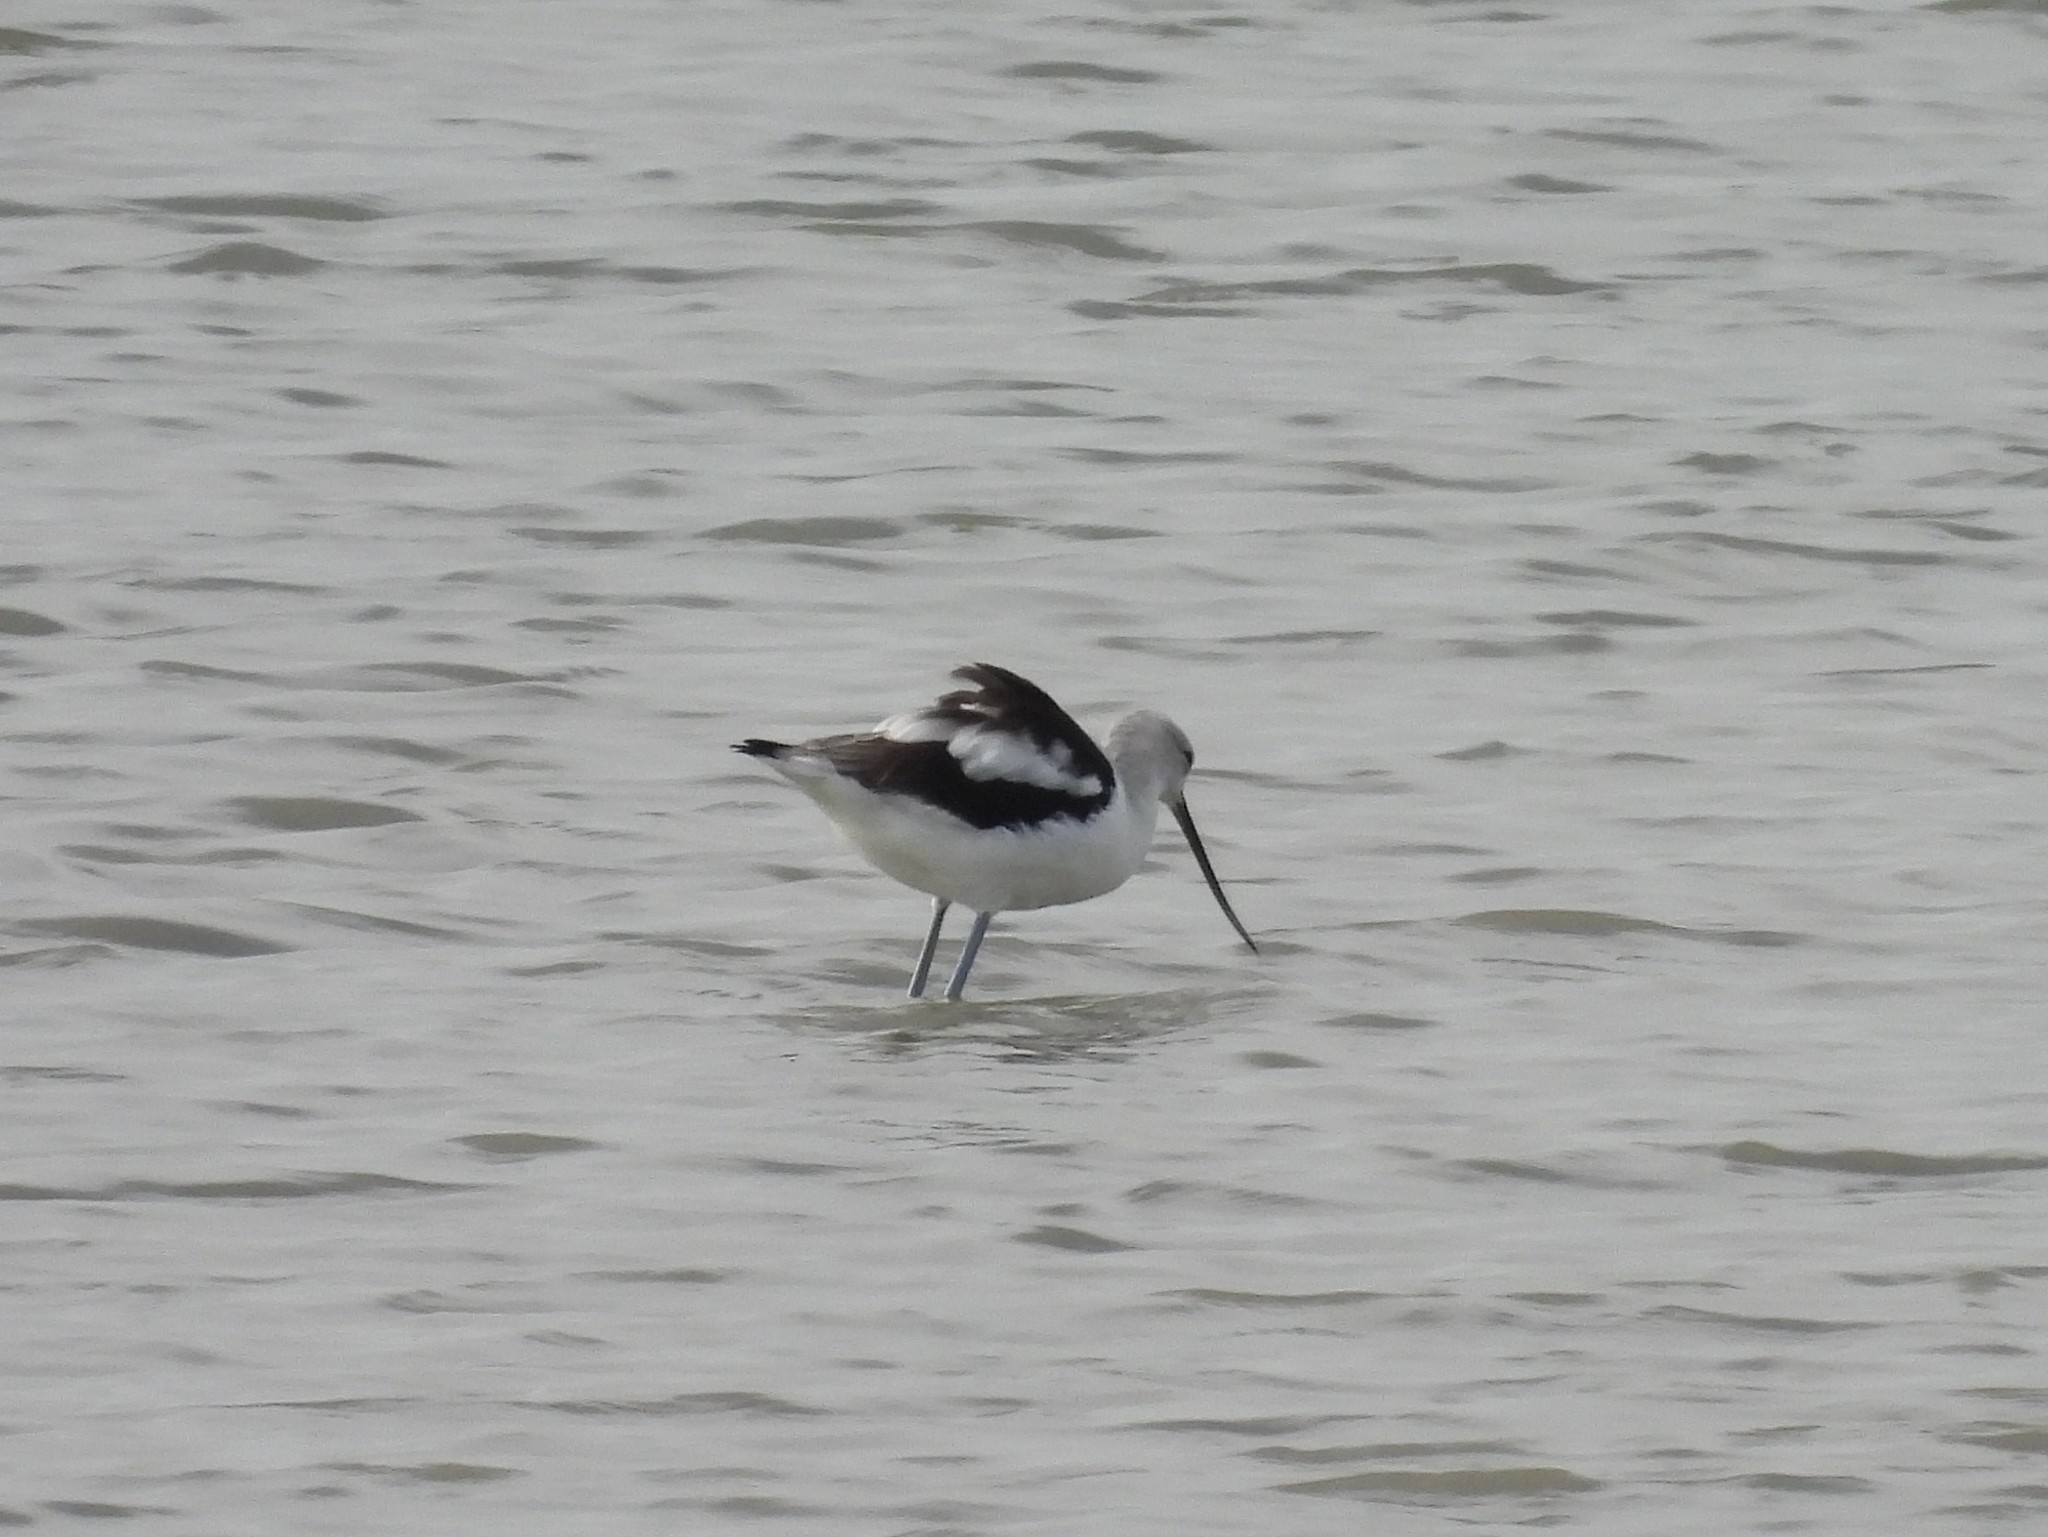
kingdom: Animalia
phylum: Chordata
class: Aves
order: Charadriiformes
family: Recurvirostridae
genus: Recurvirostra
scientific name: Recurvirostra americana
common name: American avocet
